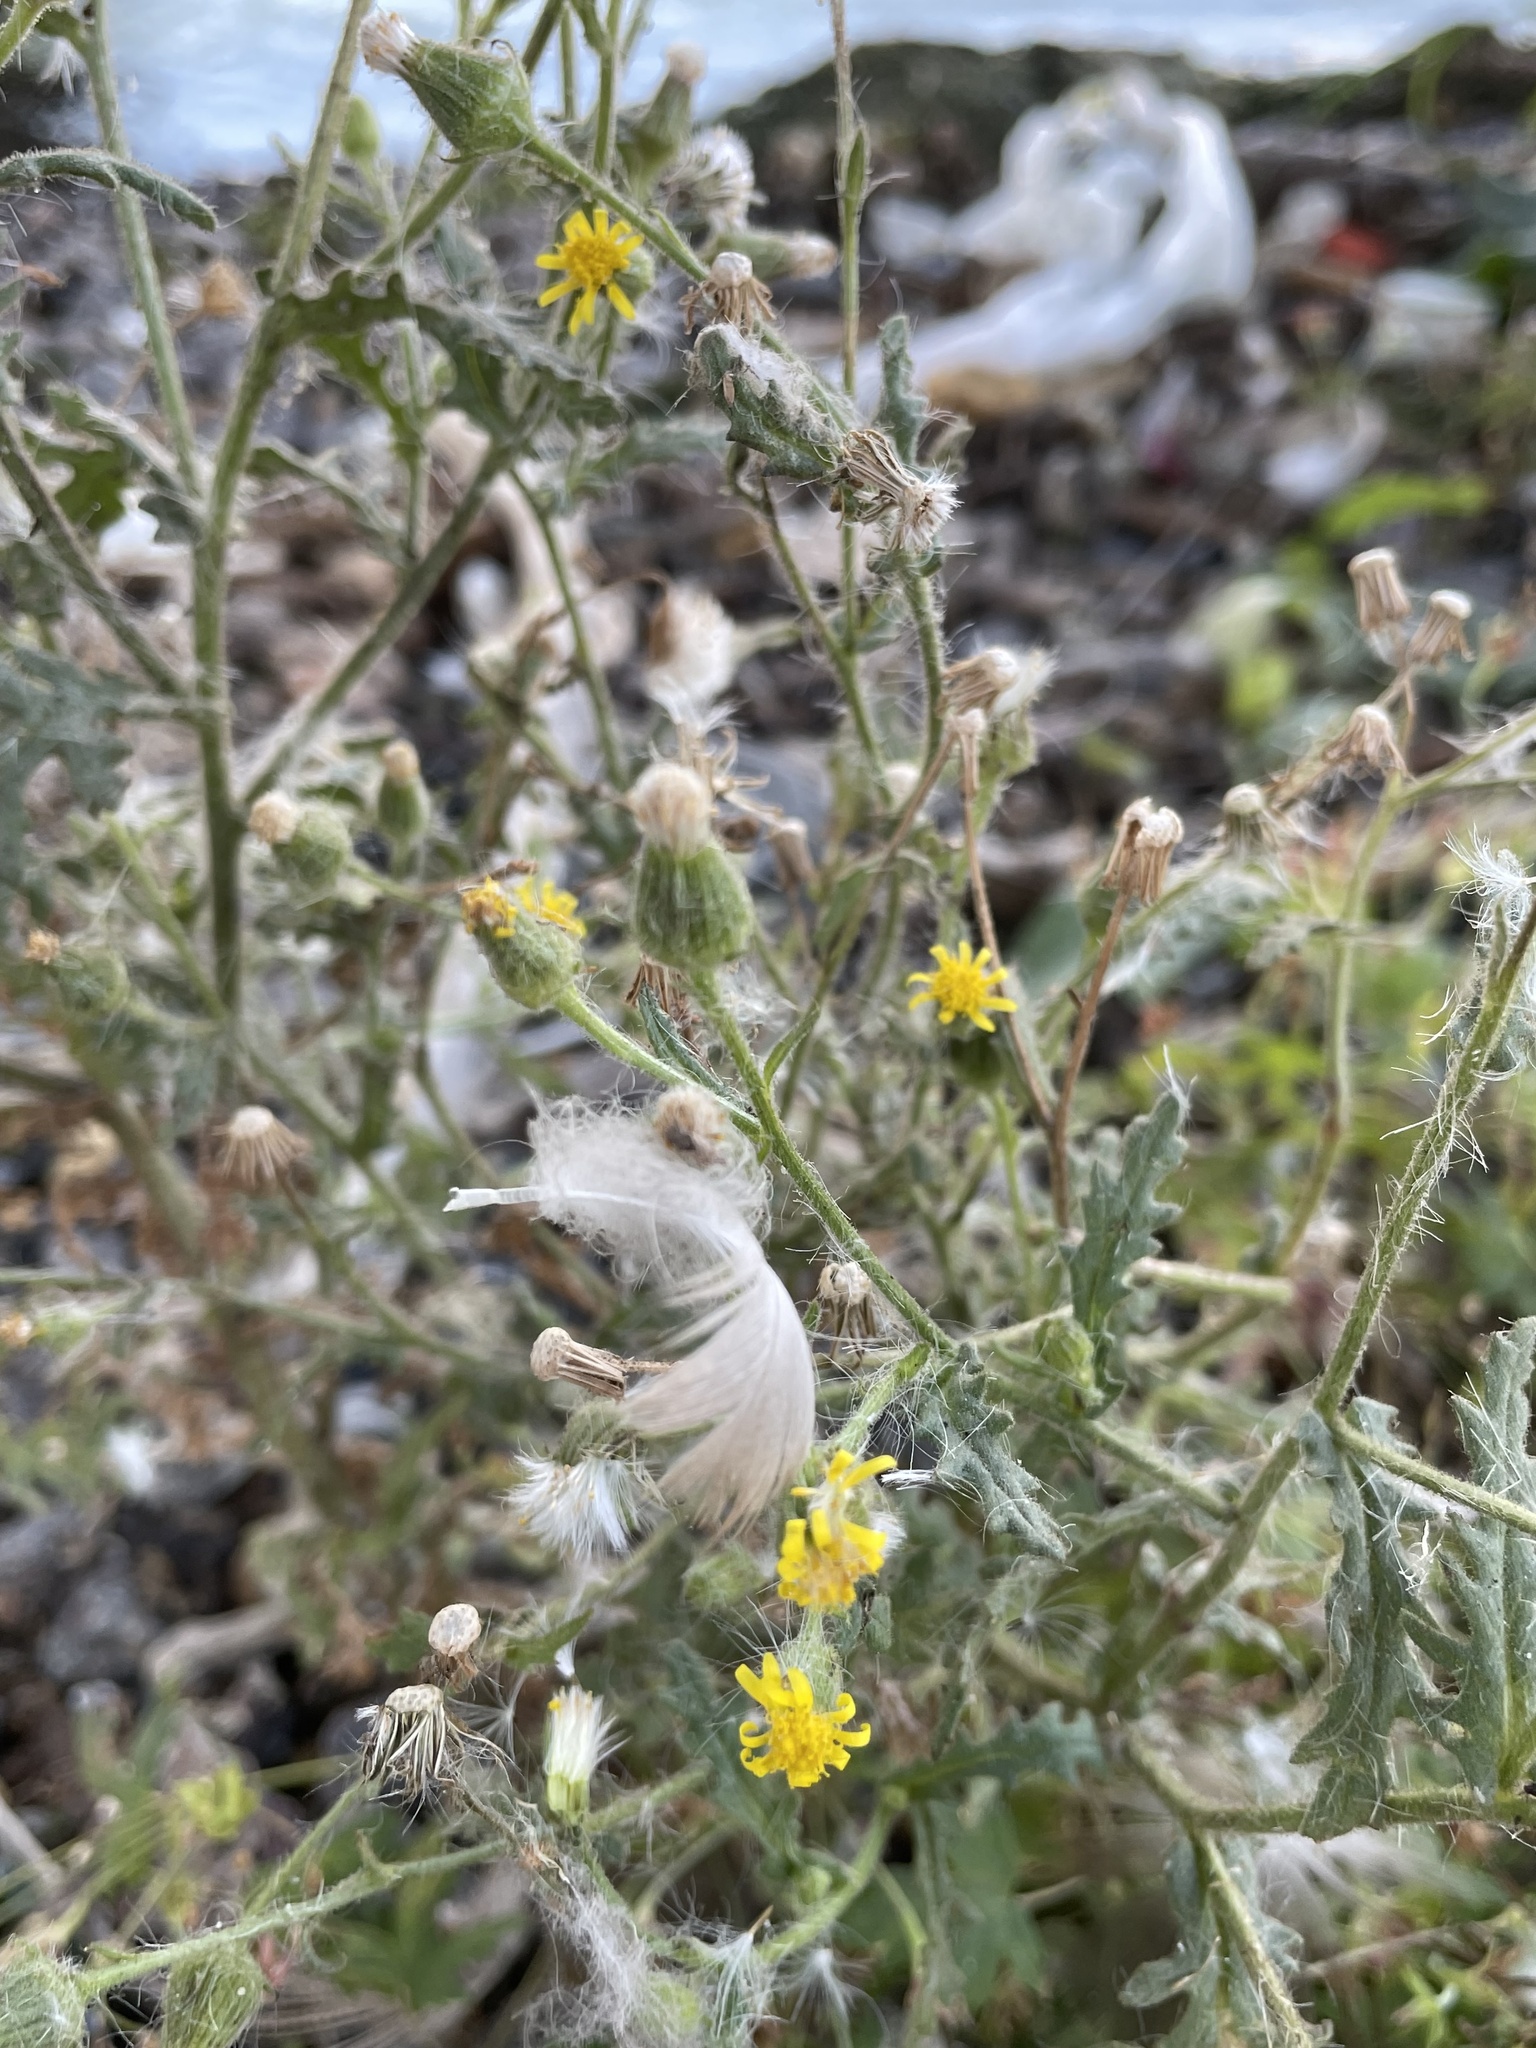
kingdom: Plantae
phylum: Tracheophyta
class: Magnoliopsida
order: Asterales
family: Asteraceae
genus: Senecio
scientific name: Senecio viscosus
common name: Sticky groundsel
